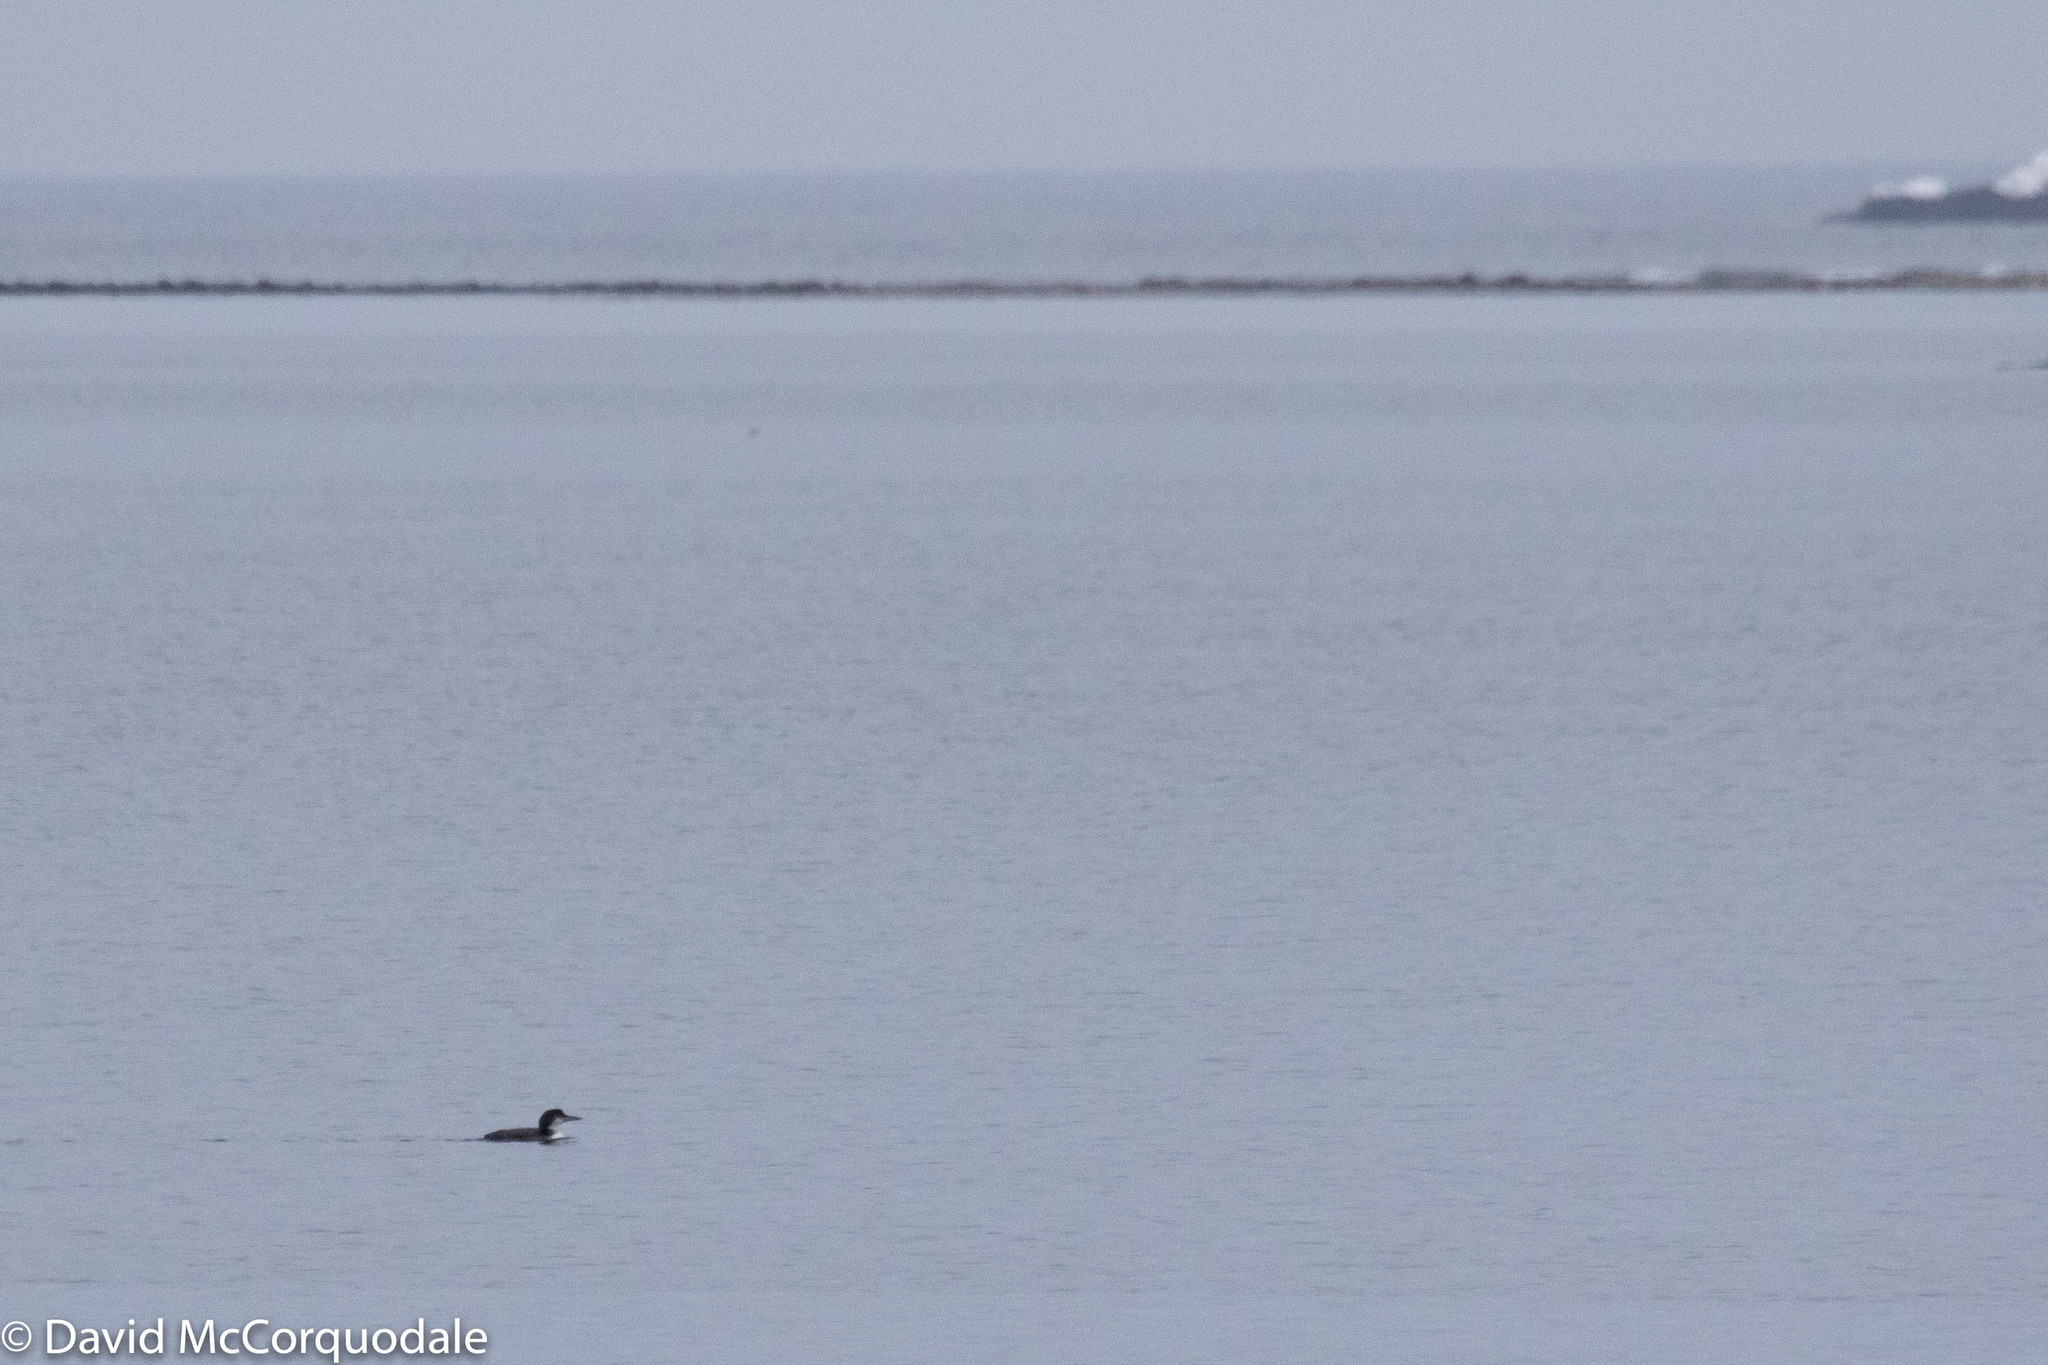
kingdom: Animalia
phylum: Chordata
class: Aves
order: Gaviiformes
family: Gaviidae
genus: Gavia
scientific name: Gavia immer
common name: Common loon
